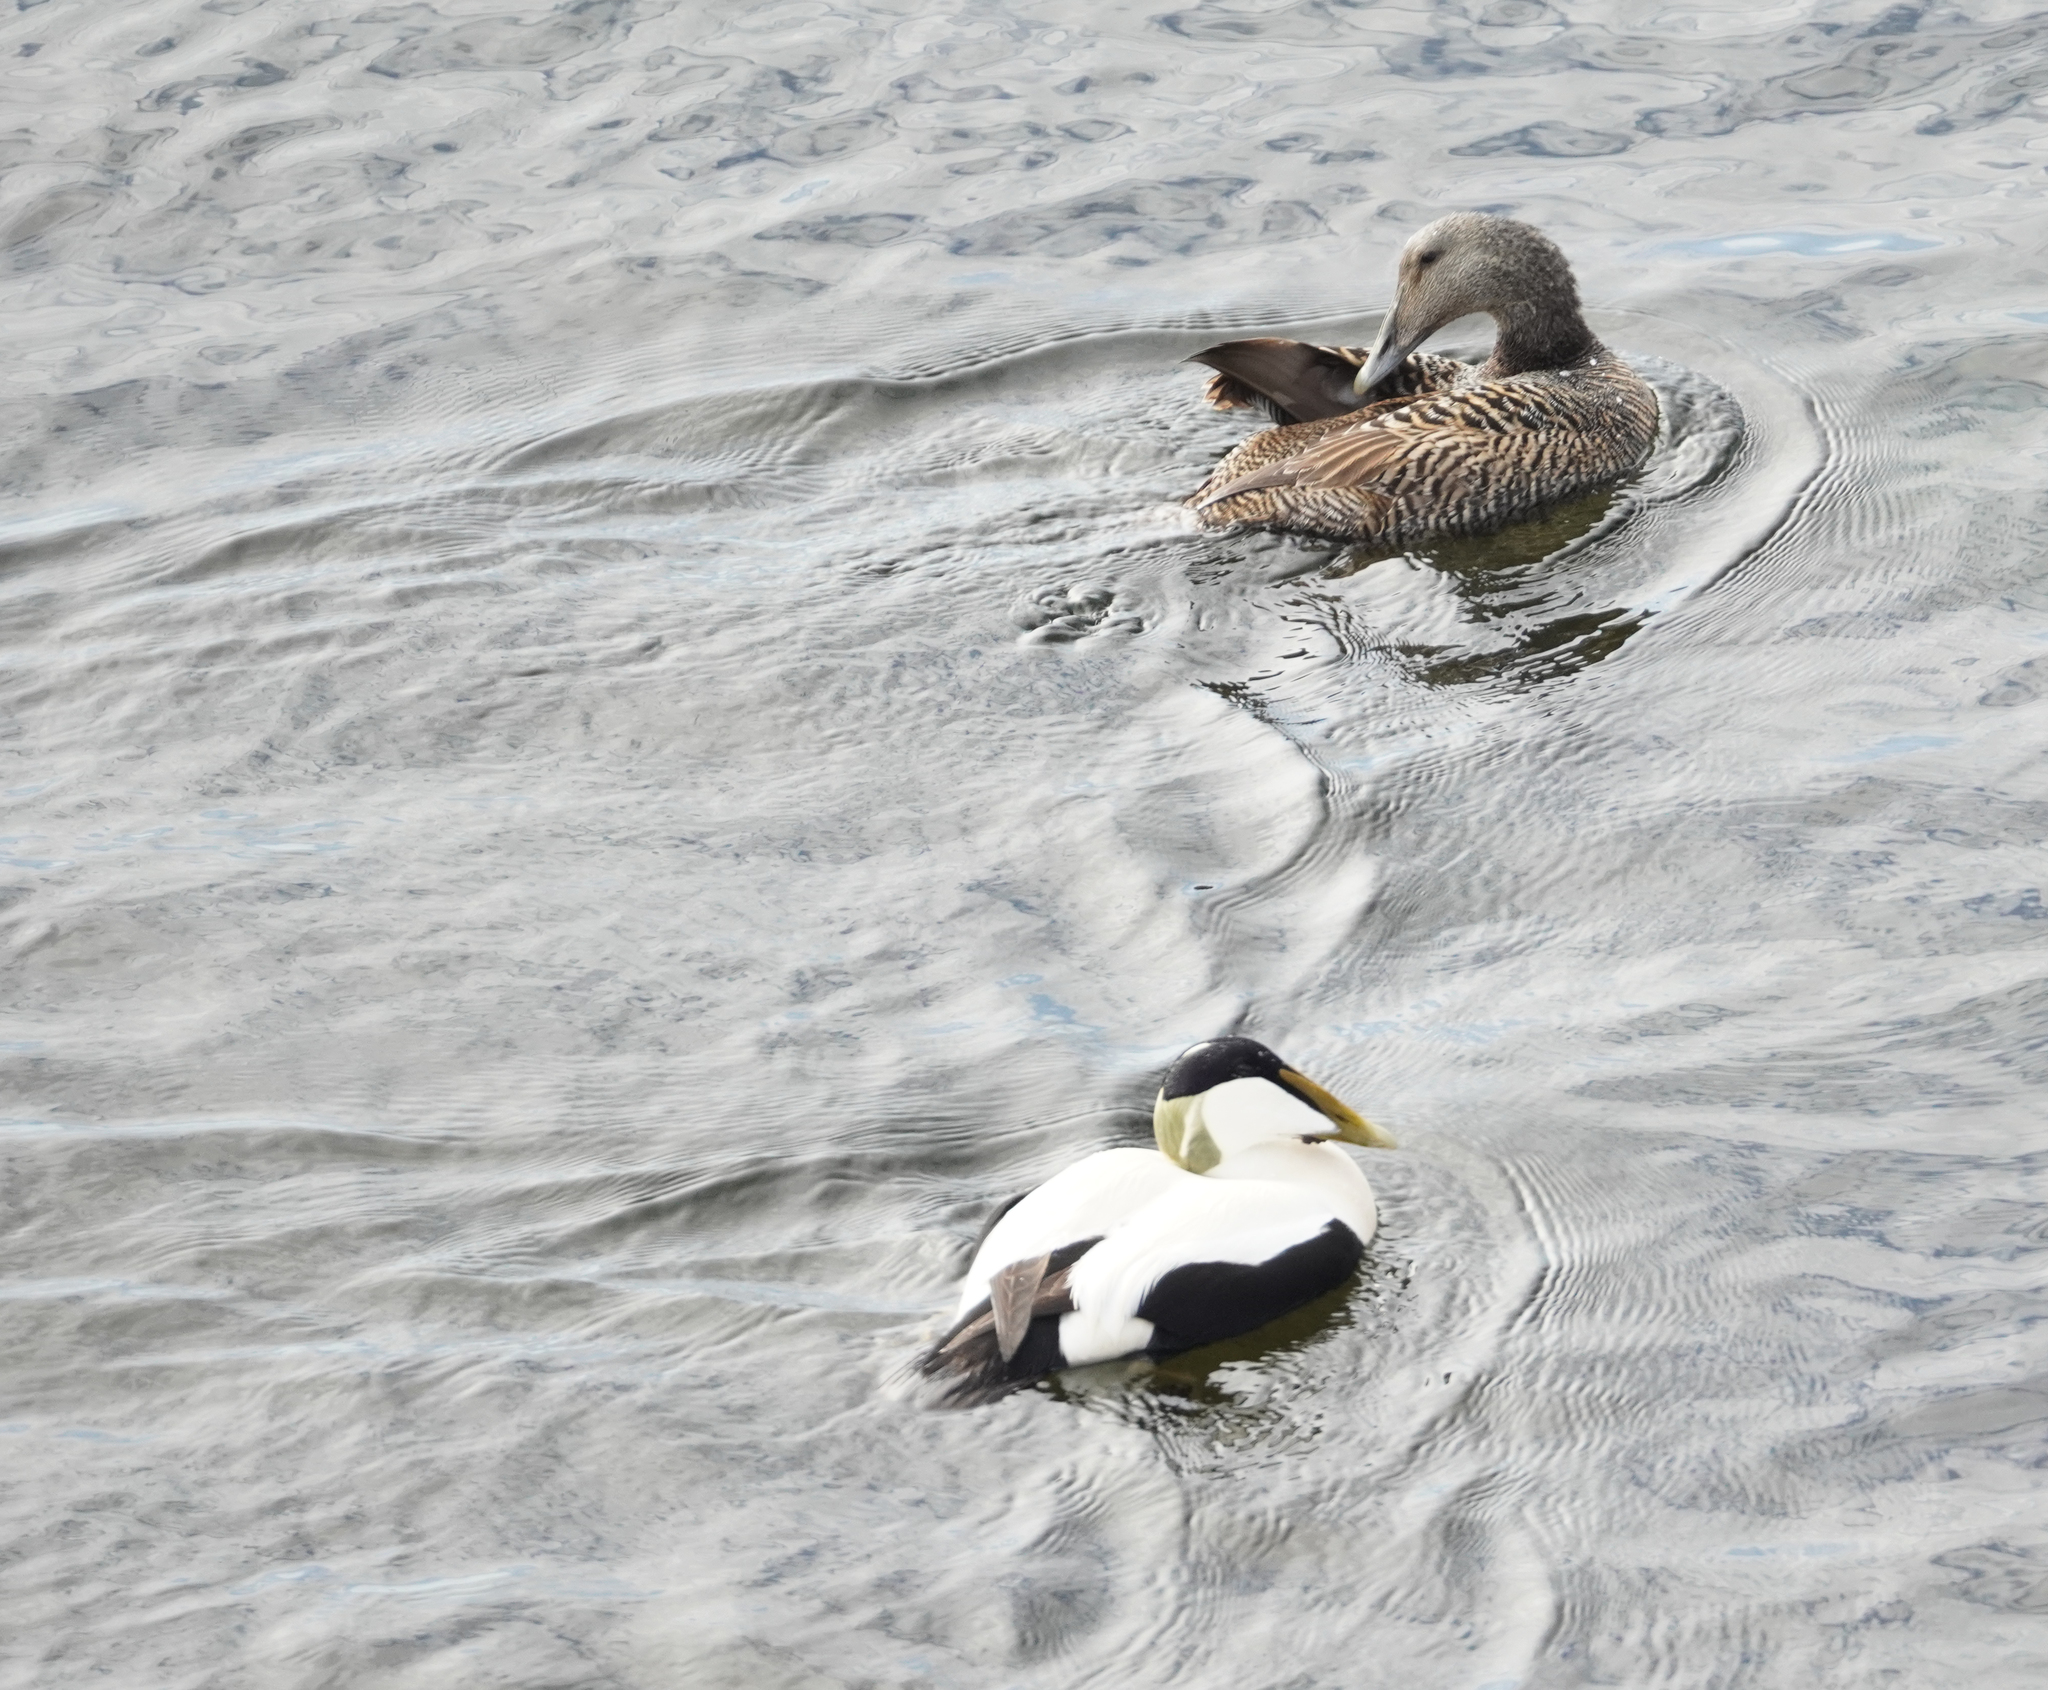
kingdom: Animalia
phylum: Chordata
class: Aves
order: Anseriformes
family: Anatidae
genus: Somateria
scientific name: Somateria mollissima
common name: Common eider
